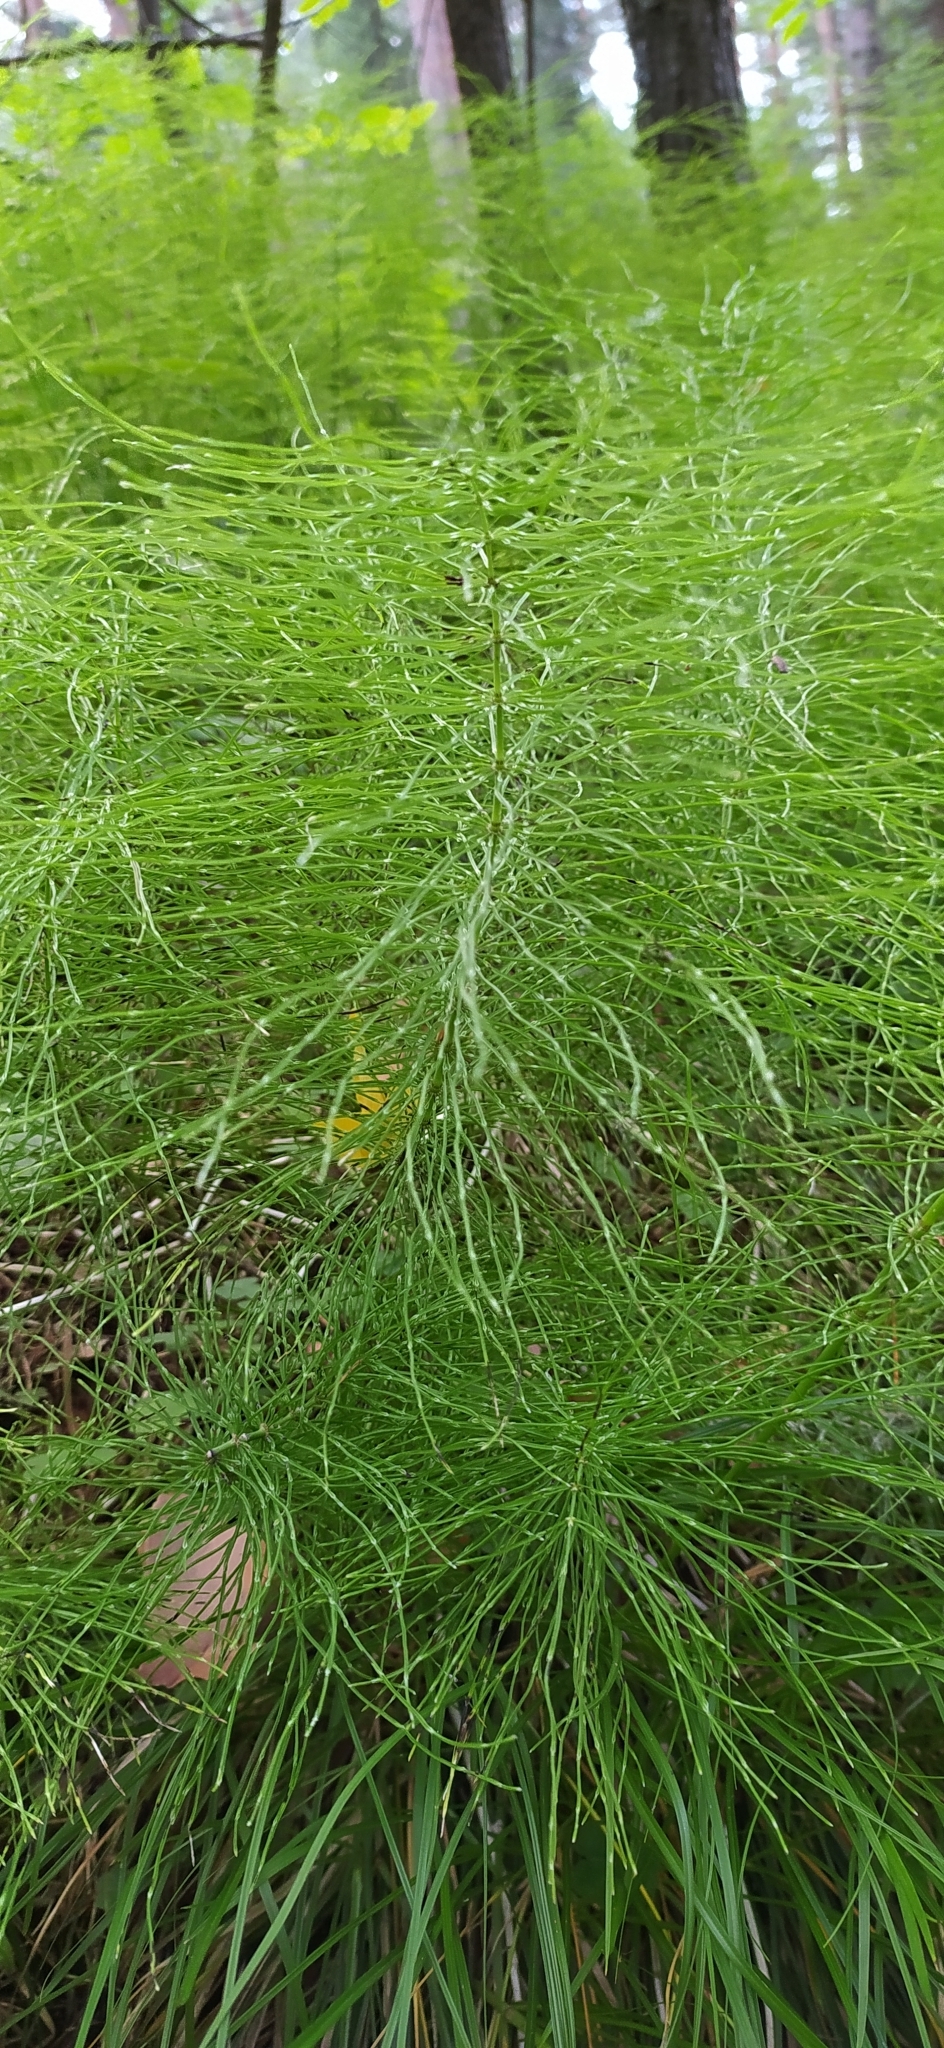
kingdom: Plantae
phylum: Tracheophyta
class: Polypodiopsida
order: Equisetales
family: Equisetaceae
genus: Equisetum
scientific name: Equisetum pratense
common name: Meadow horsetail
